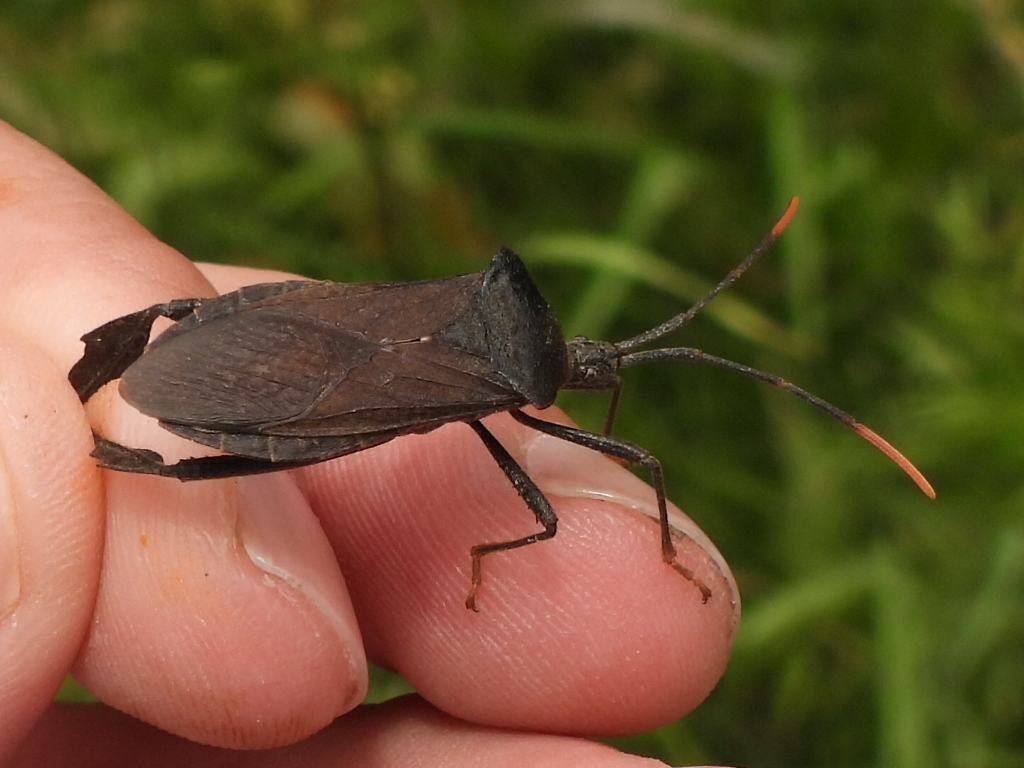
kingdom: Animalia
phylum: Arthropoda
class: Insecta
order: Hemiptera
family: Coreidae
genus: Acanthocephala
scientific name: Acanthocephala terminalis
